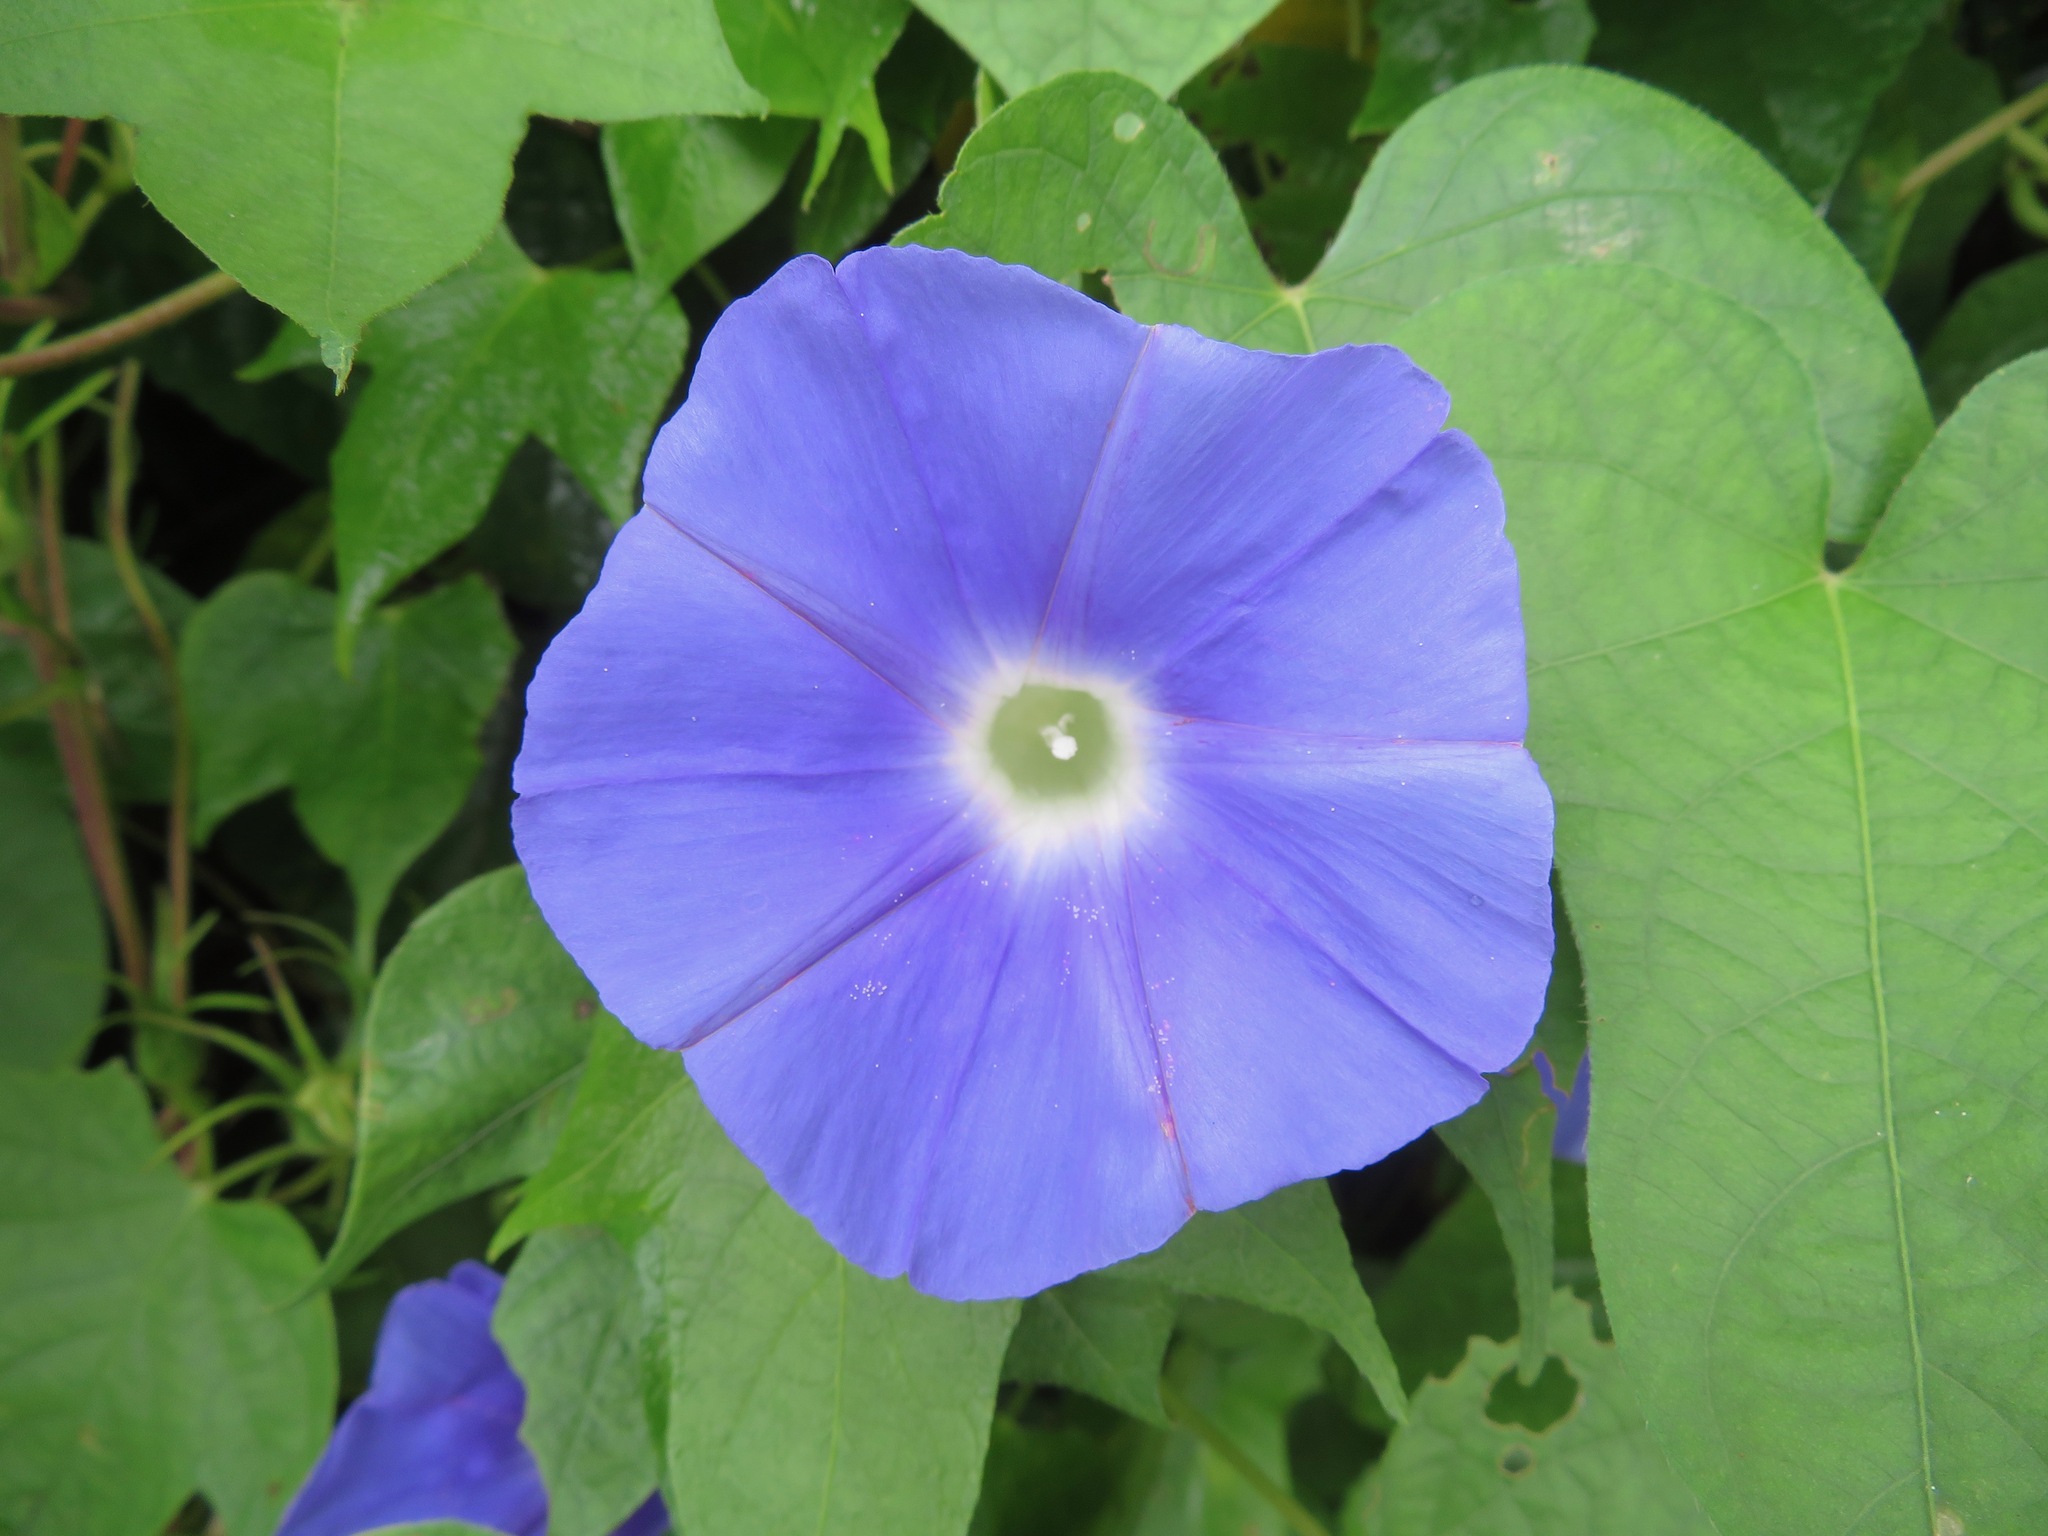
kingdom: Plantae
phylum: Tracheophyta
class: Magnoliopsida
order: Solanales
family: Convolvulaceae
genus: Ipomoea
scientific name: Ipomoea nil
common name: Japanese morning-glory
